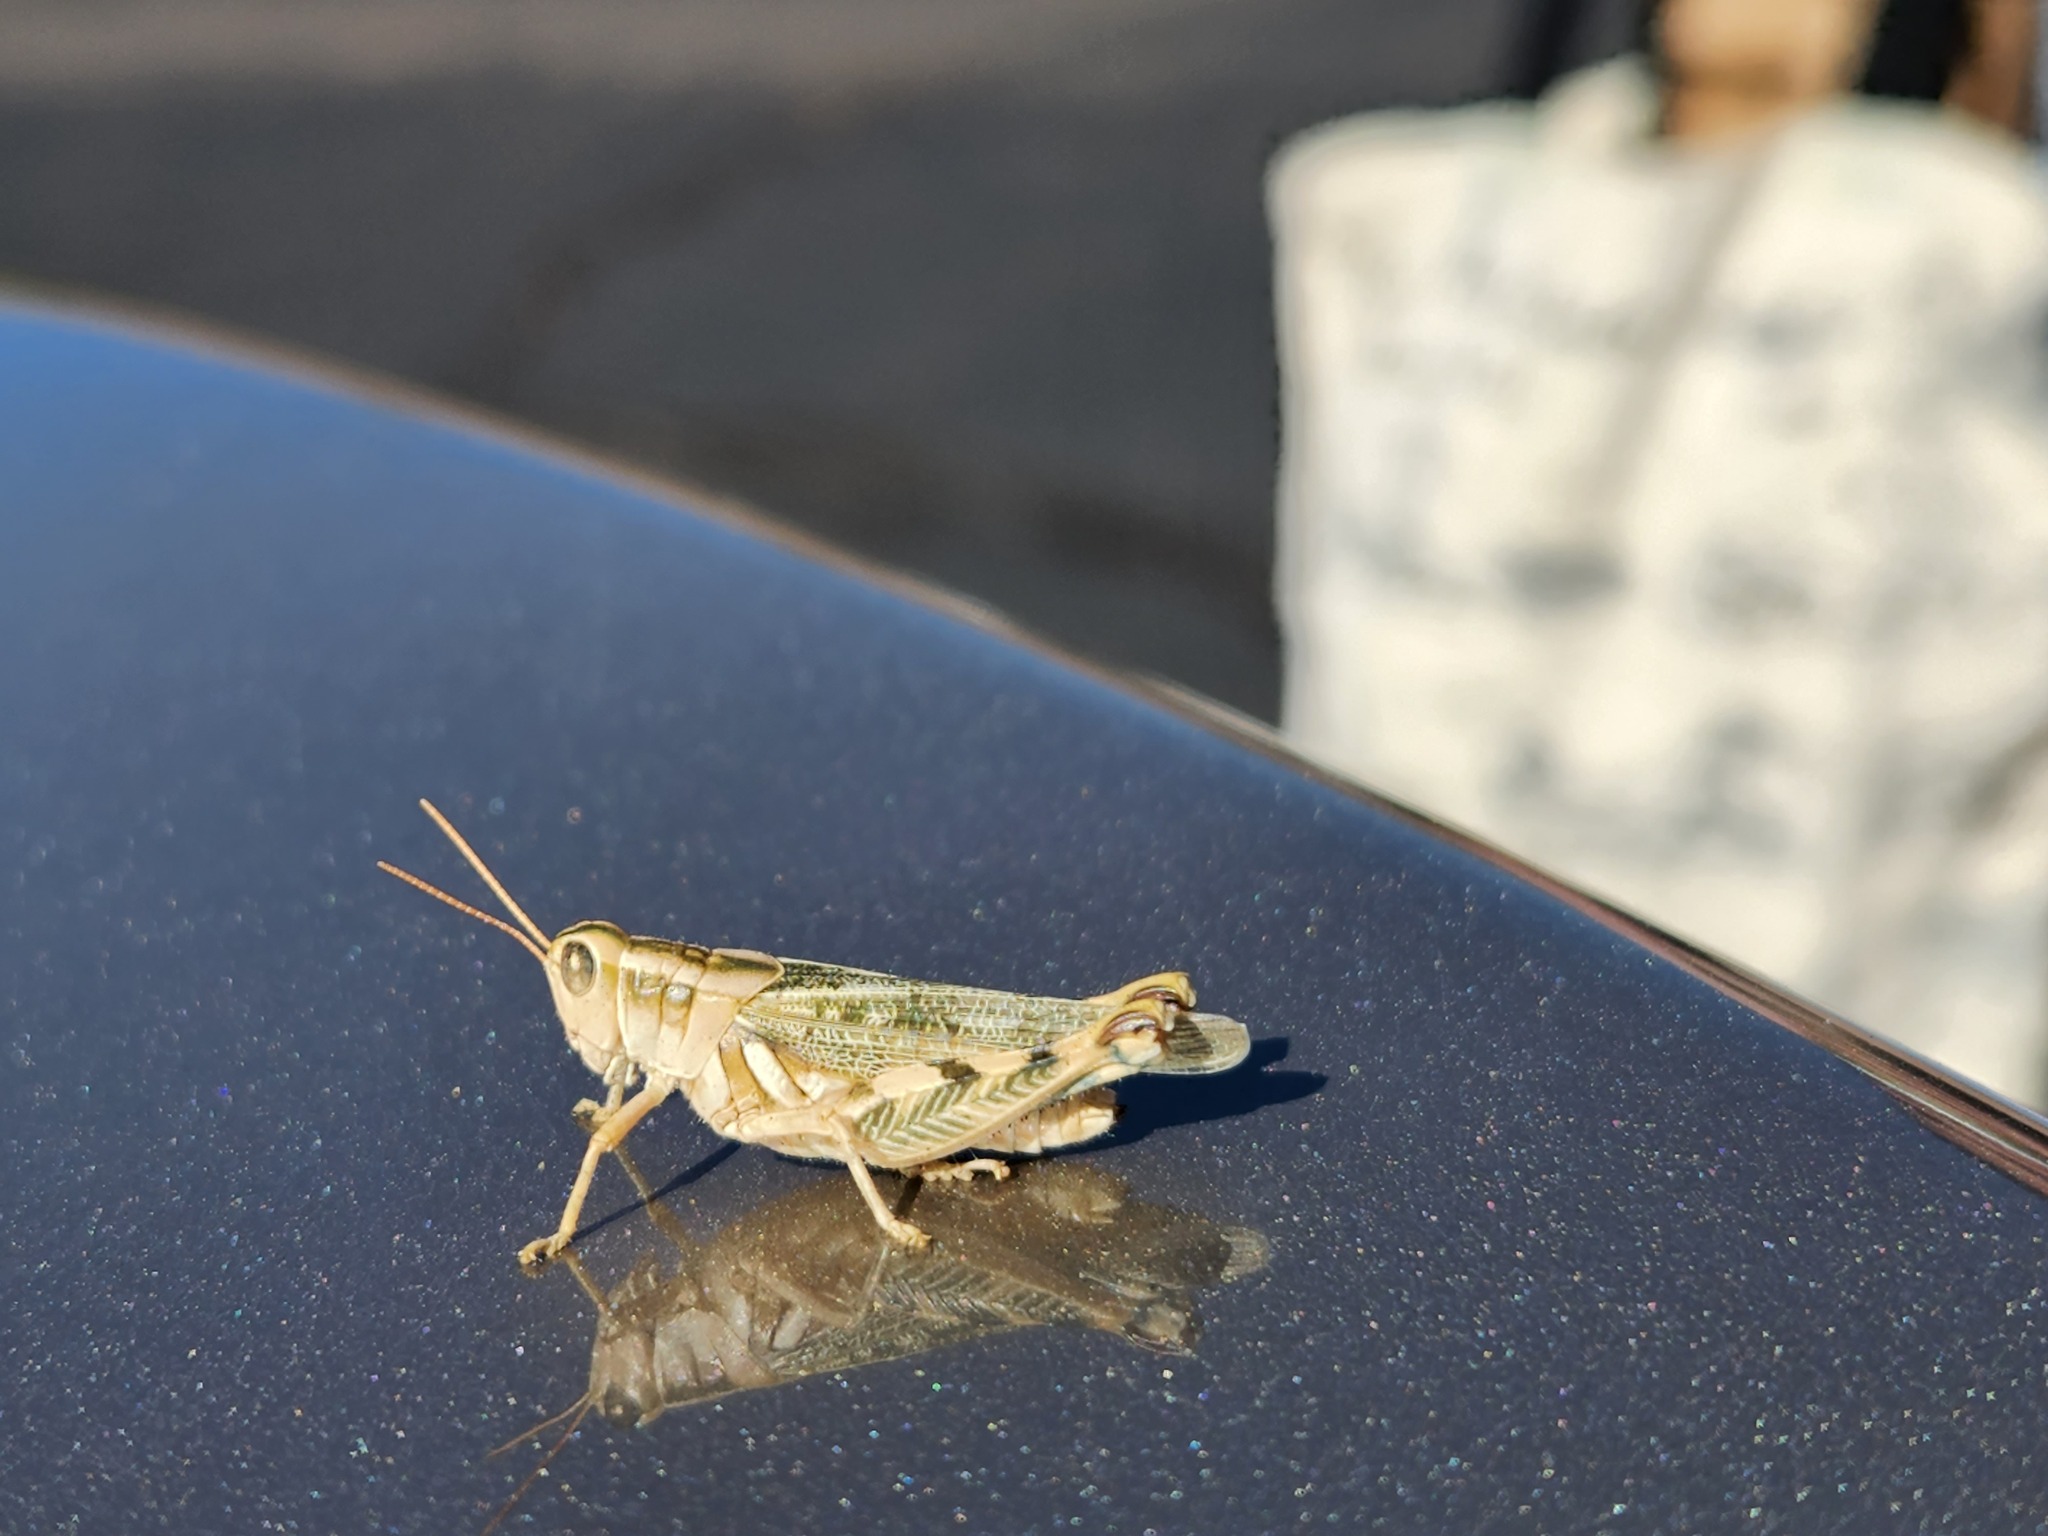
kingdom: Animalia
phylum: Arthropoda
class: Insecta
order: Orthoptera
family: Acrididae
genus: Aeoloplides
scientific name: Aeoloplides turnbulli
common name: Russianthistle grasshopper
